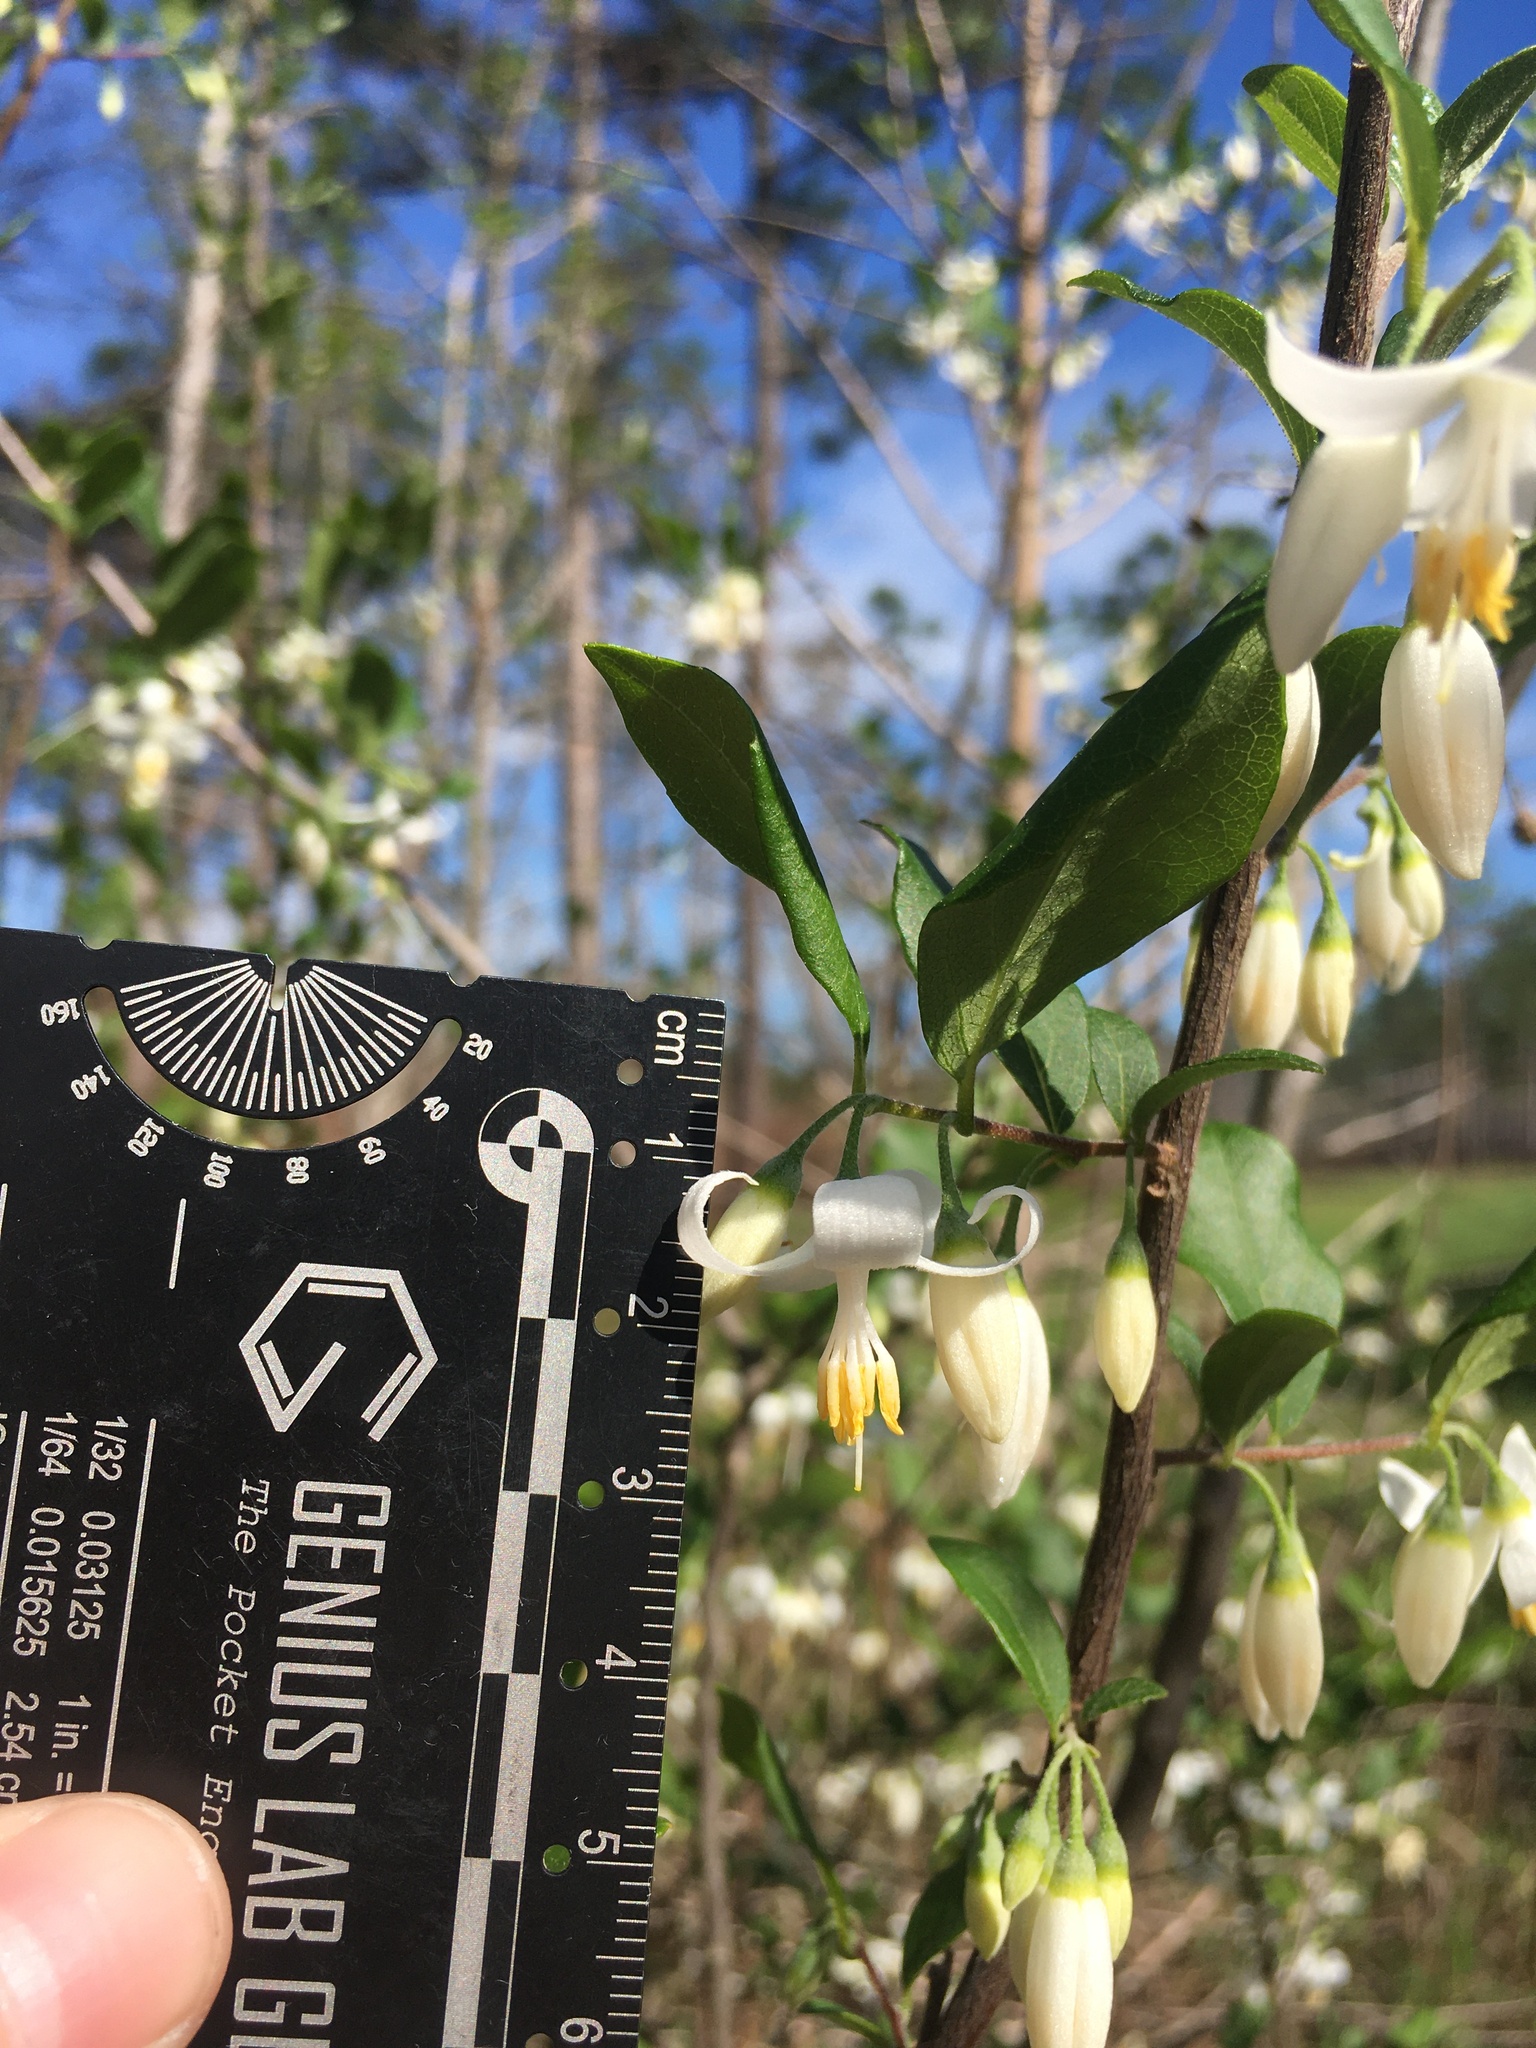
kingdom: Plantae
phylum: Tracheophyta
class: Magnoliopsida
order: Ericales
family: Styracaceae
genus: Styrax
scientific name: Styrax americanus
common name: American snowbell
